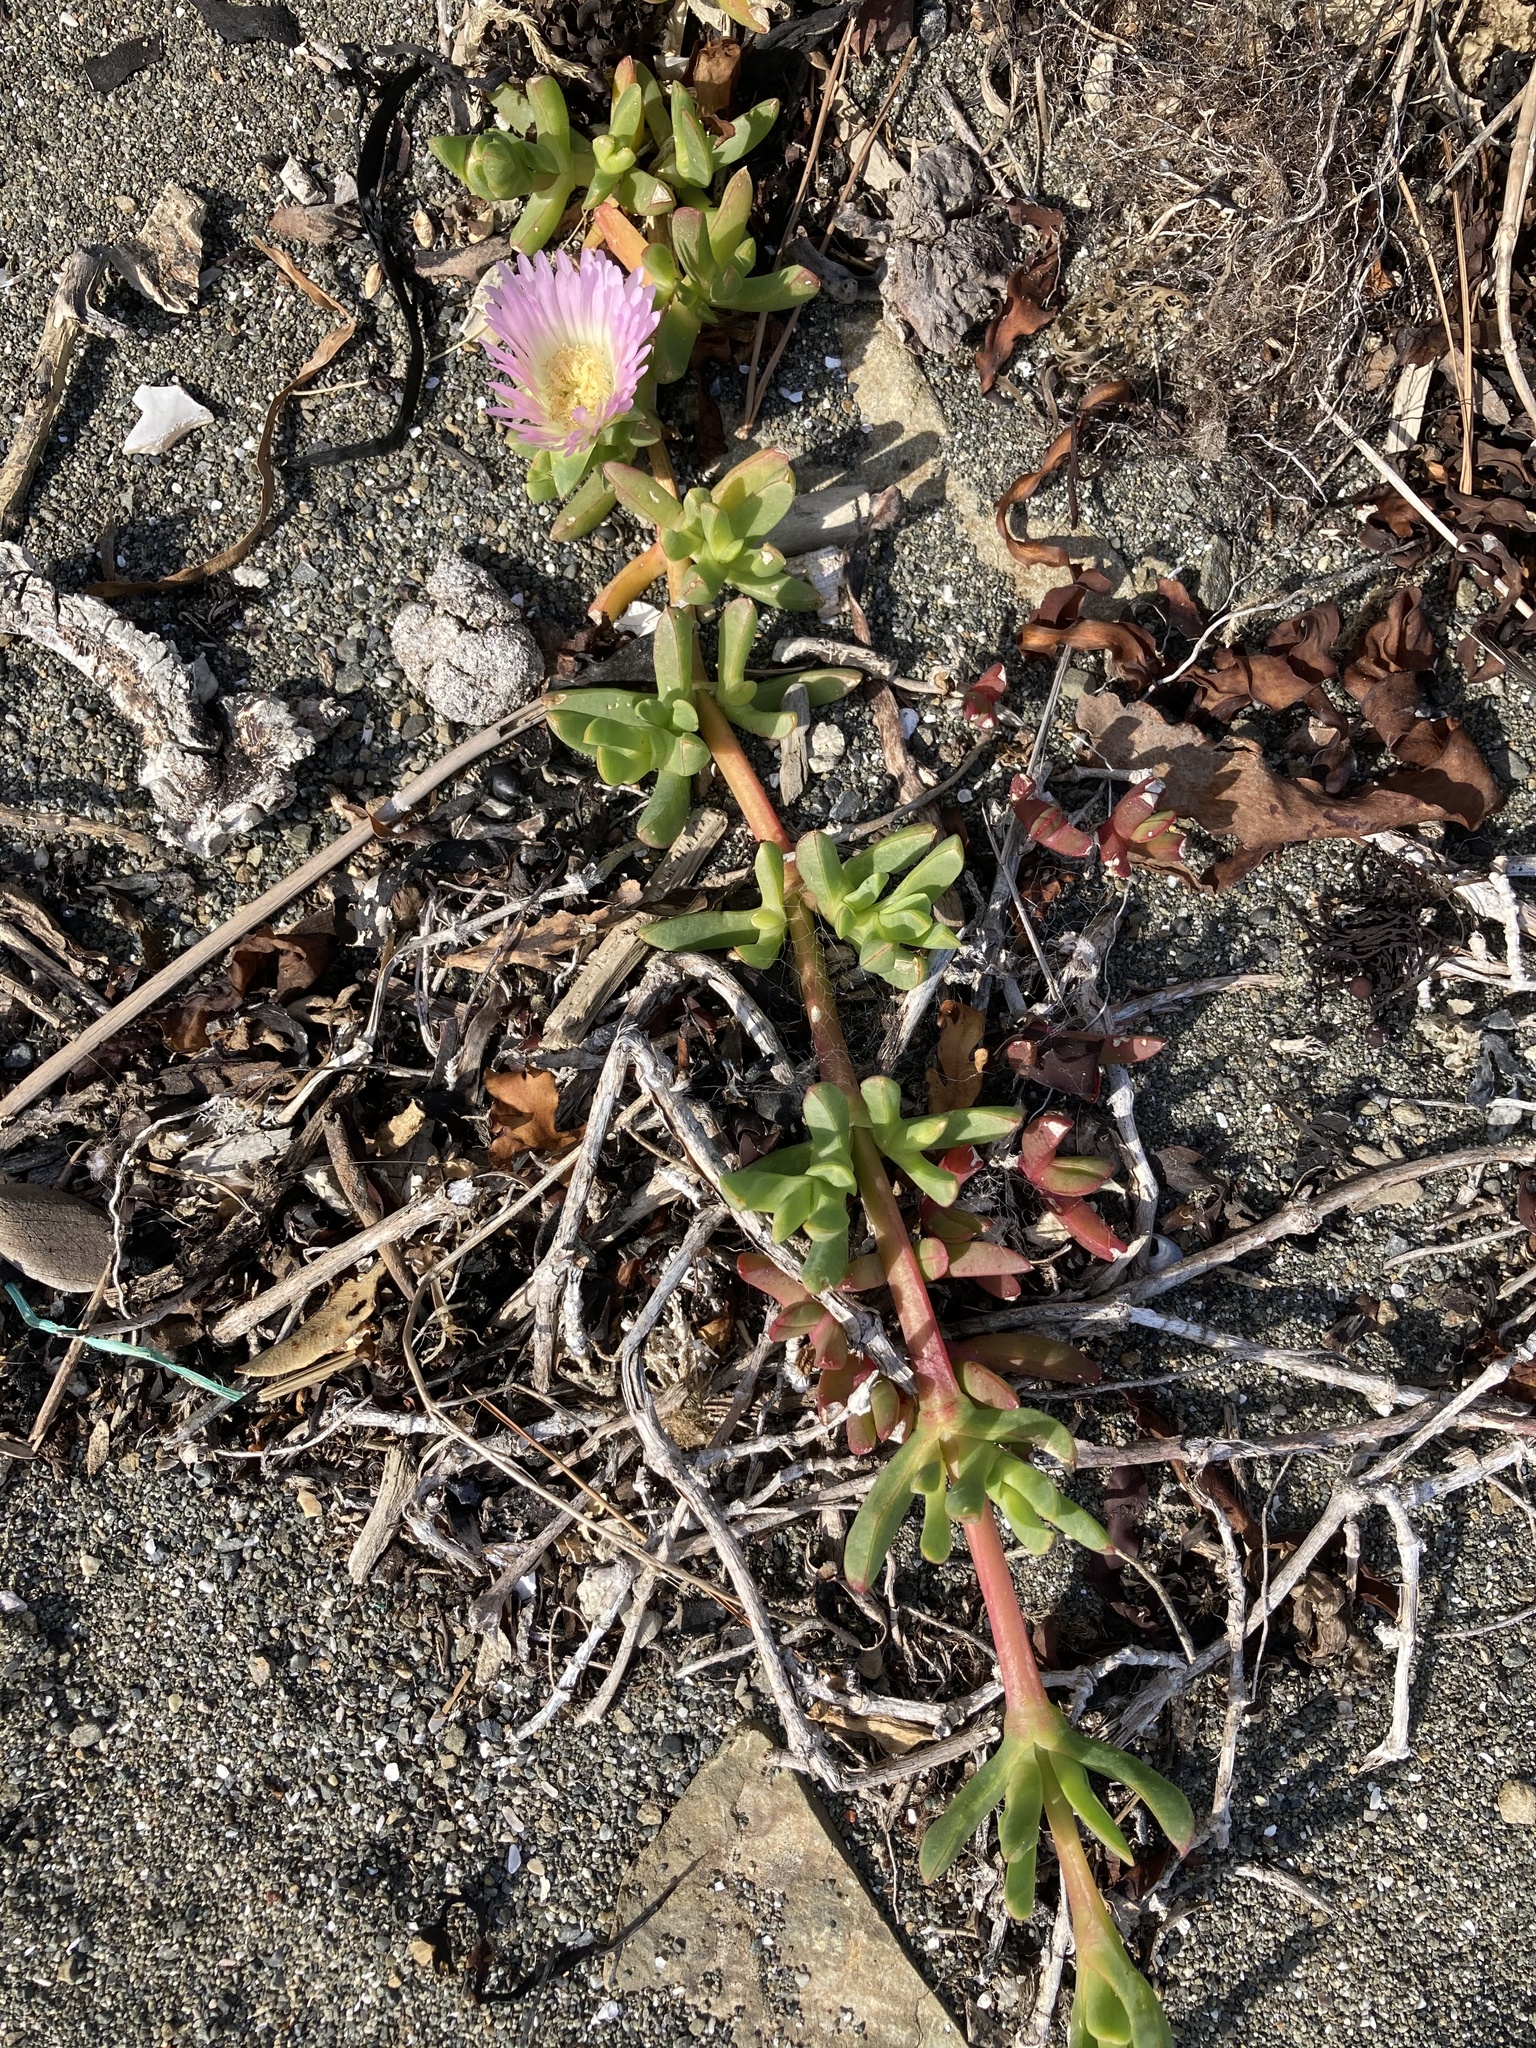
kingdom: Plantae
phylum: Tracheophyta
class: Magnoliopsida
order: Caryophyllales
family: Aizoaceae
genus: Carpobrotus
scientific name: Carpobrotus chilensis
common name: Sea fig
